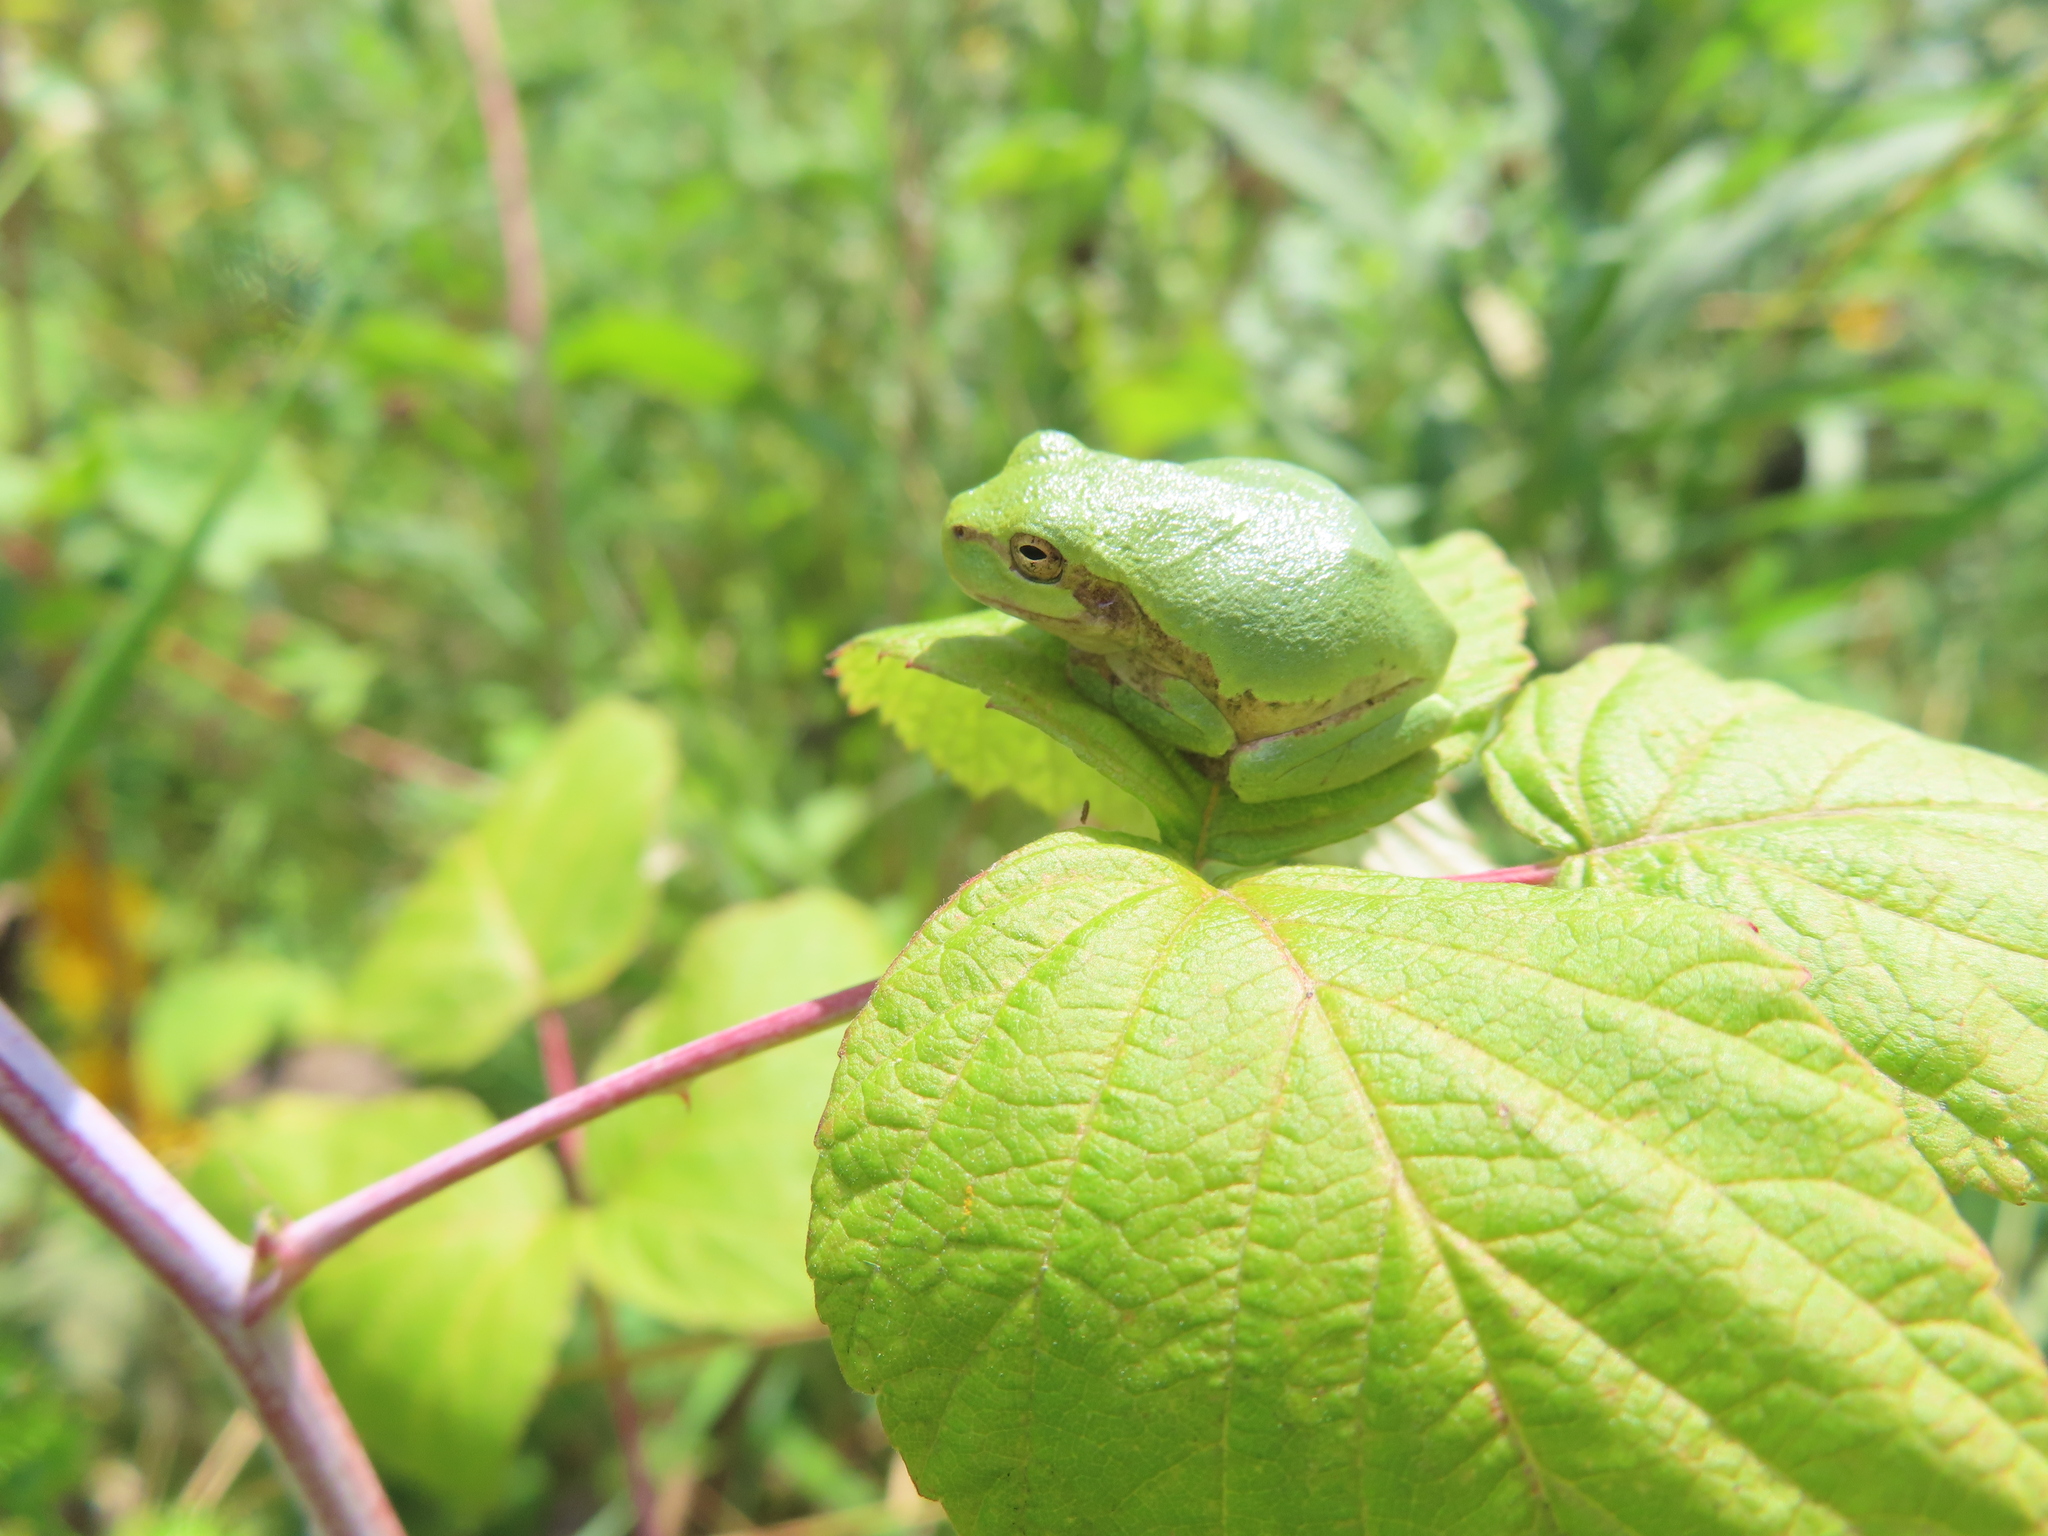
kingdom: Animalia
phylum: Chordata
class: Amphibia
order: Anura
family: Hylidae
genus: Hyla
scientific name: Hyla
